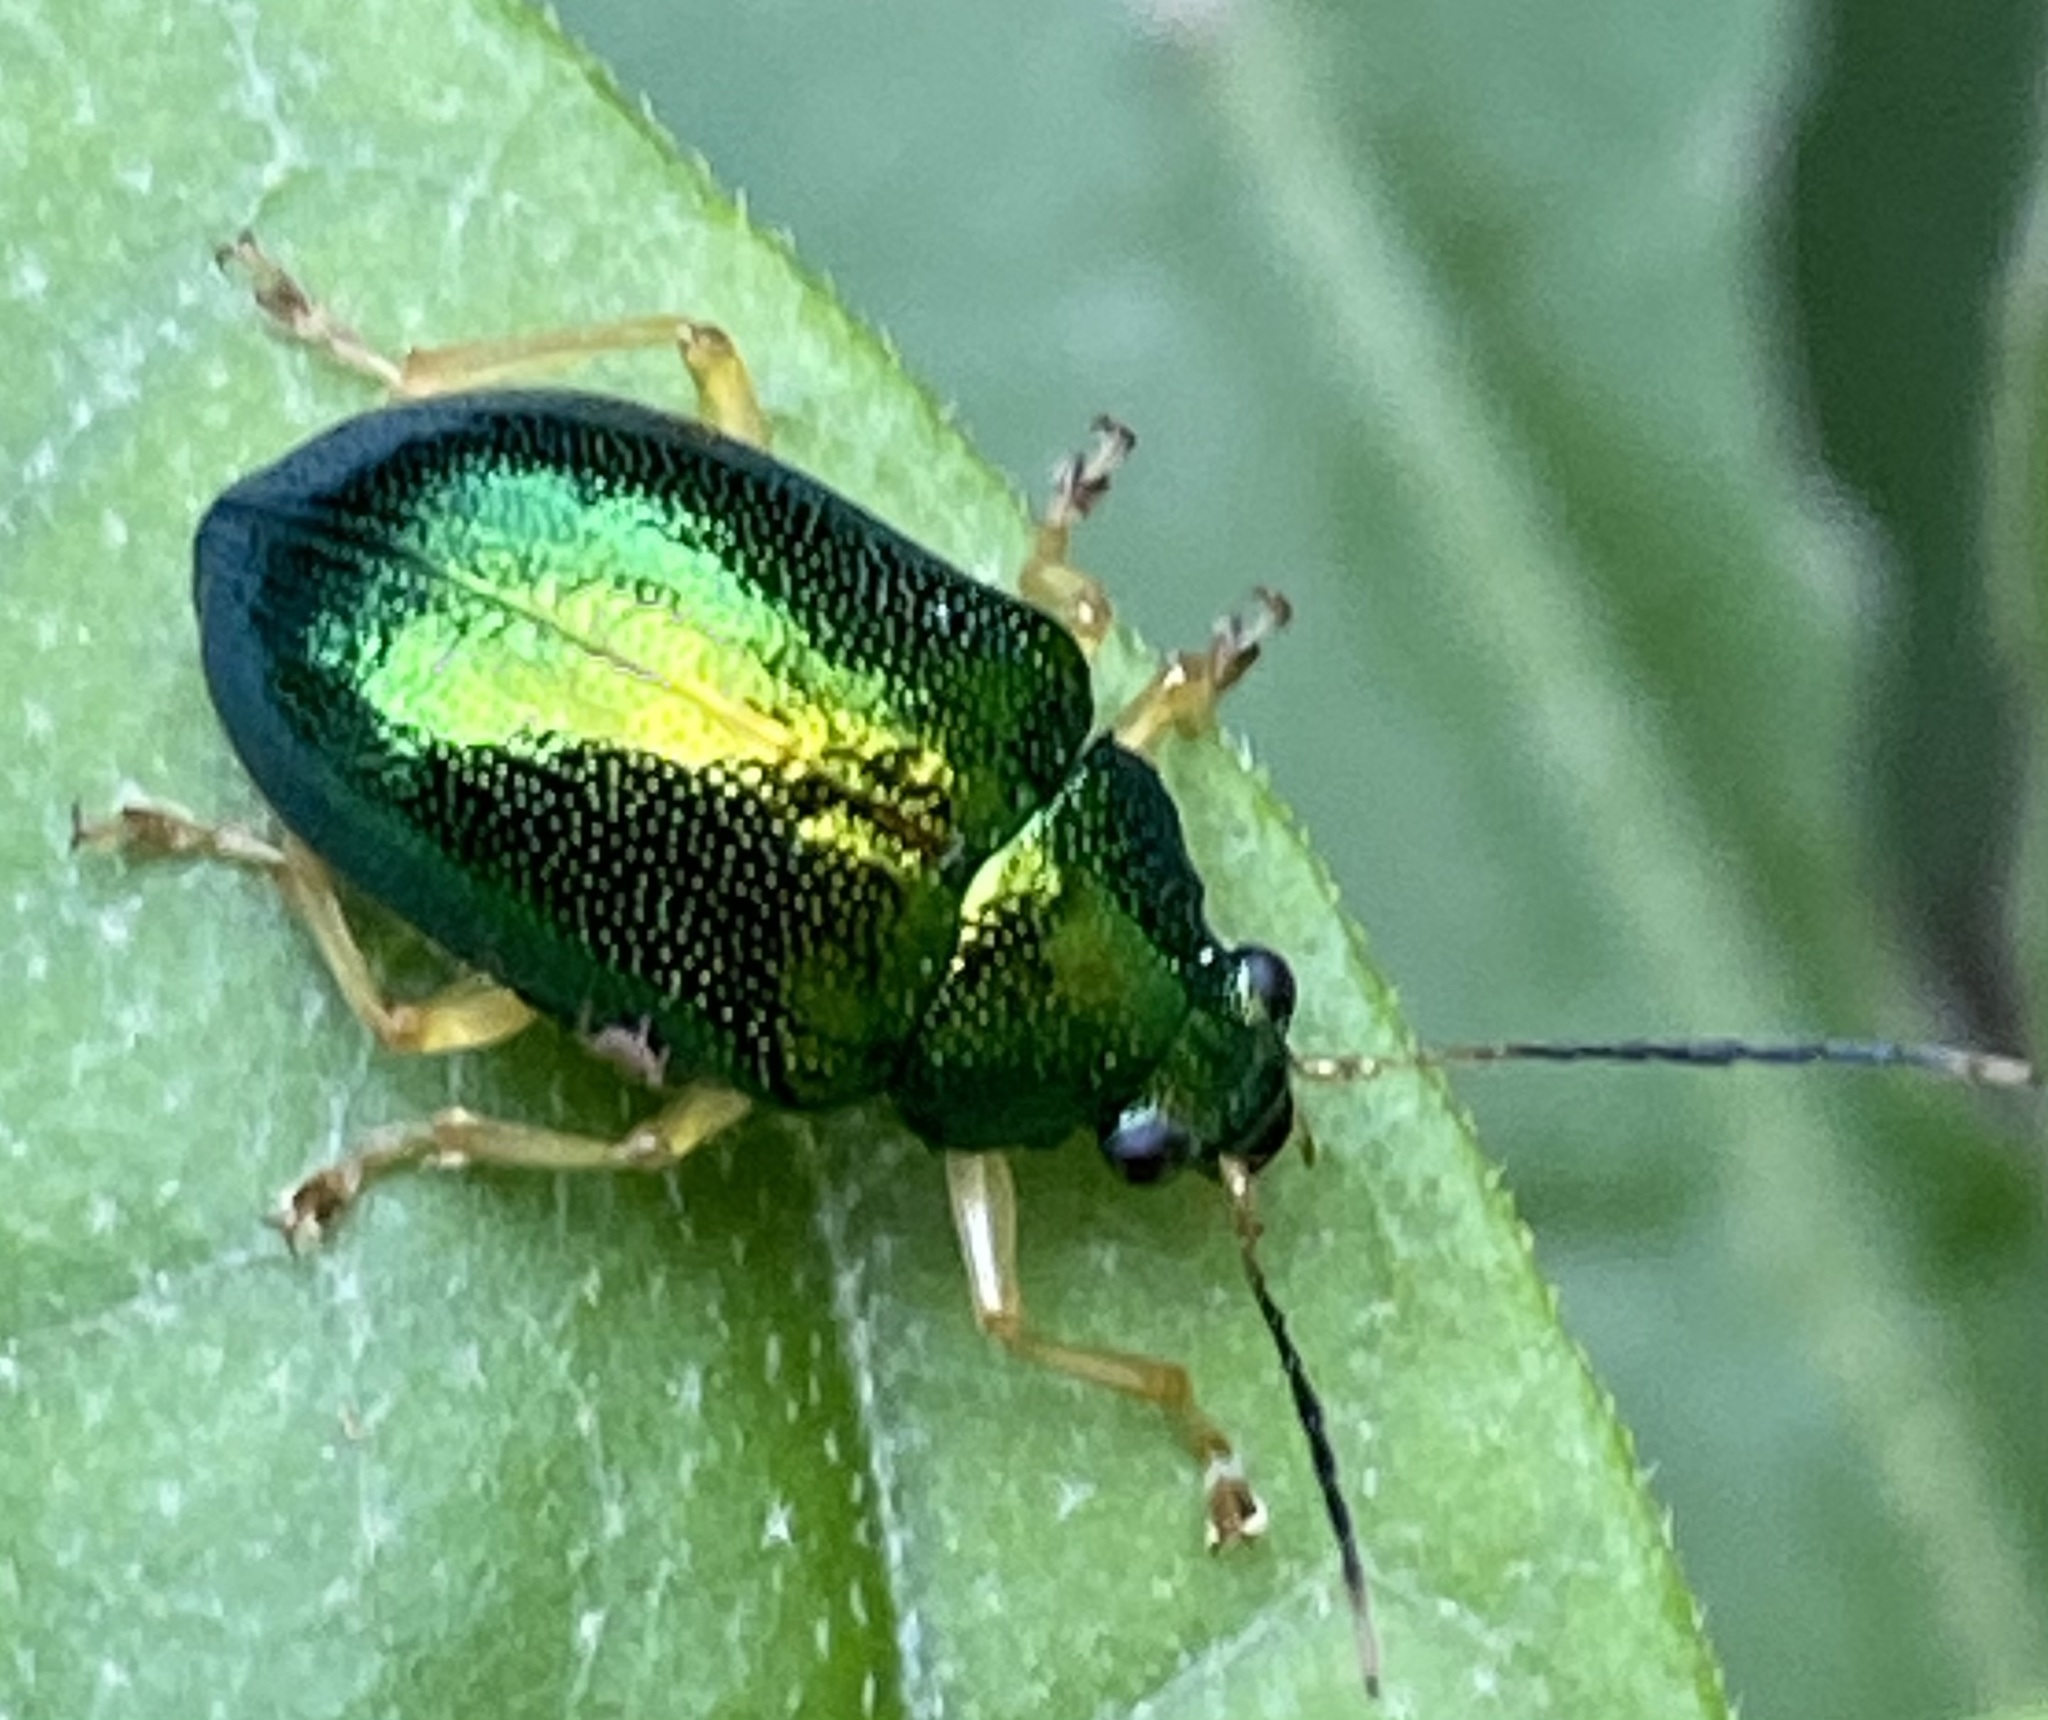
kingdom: Animalia
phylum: Arthropoda
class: Insecta
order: Coleoptera
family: Chrysomelidae
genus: Colaspis
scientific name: Colaspis
